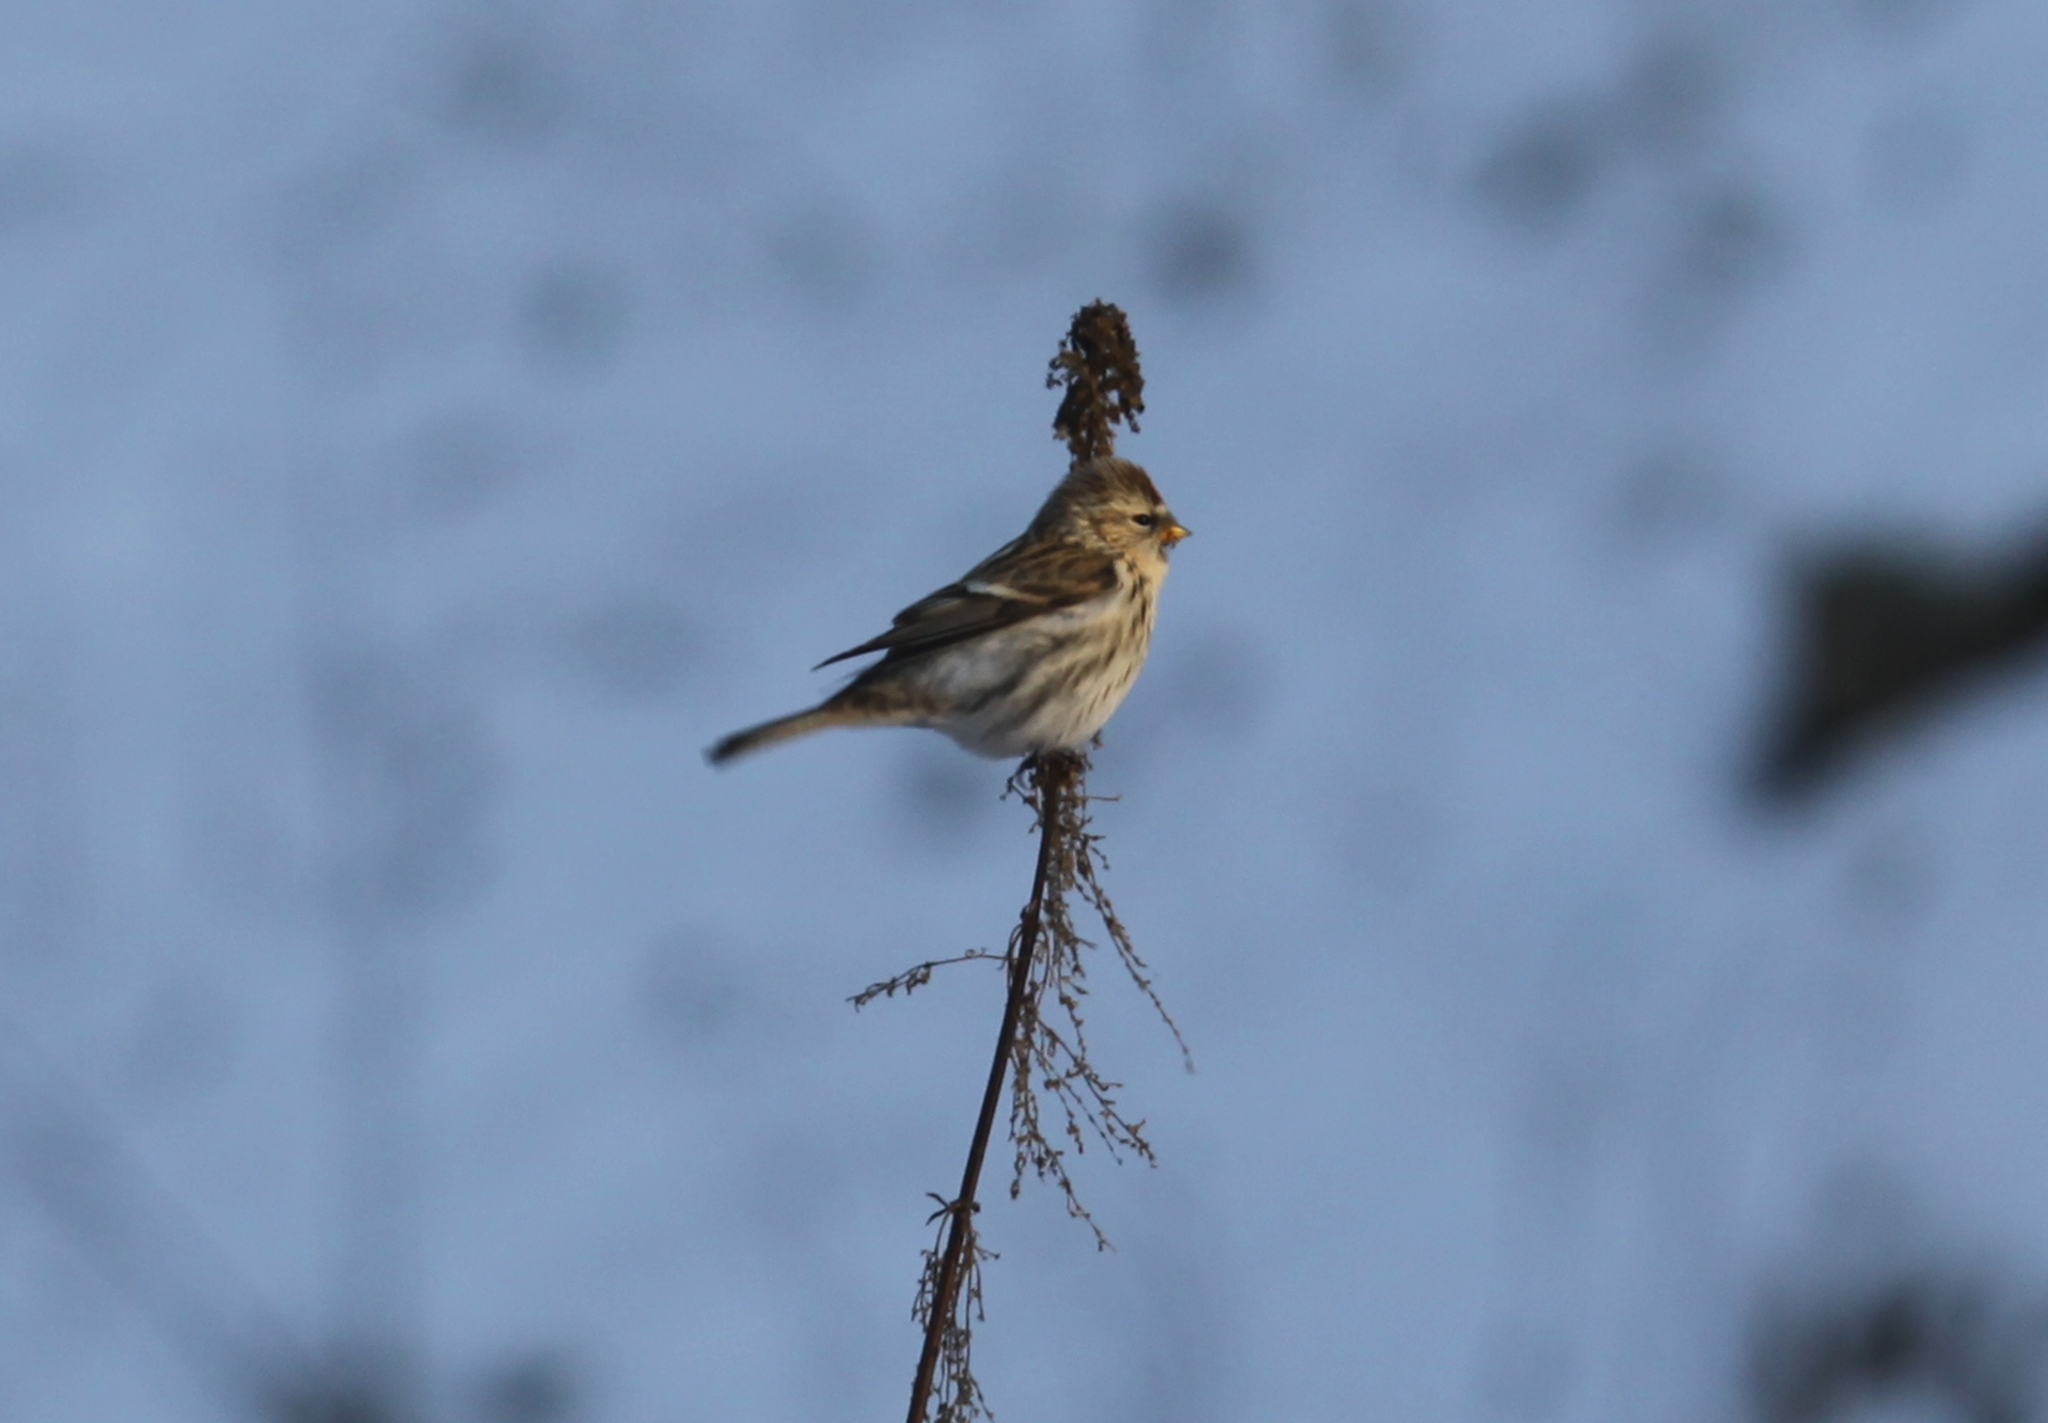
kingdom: Animalia
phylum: Chordata
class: Aves
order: Passeriformes
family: Fringillidae
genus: Acanthis
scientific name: Acanthis flammea
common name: Common redpoll
